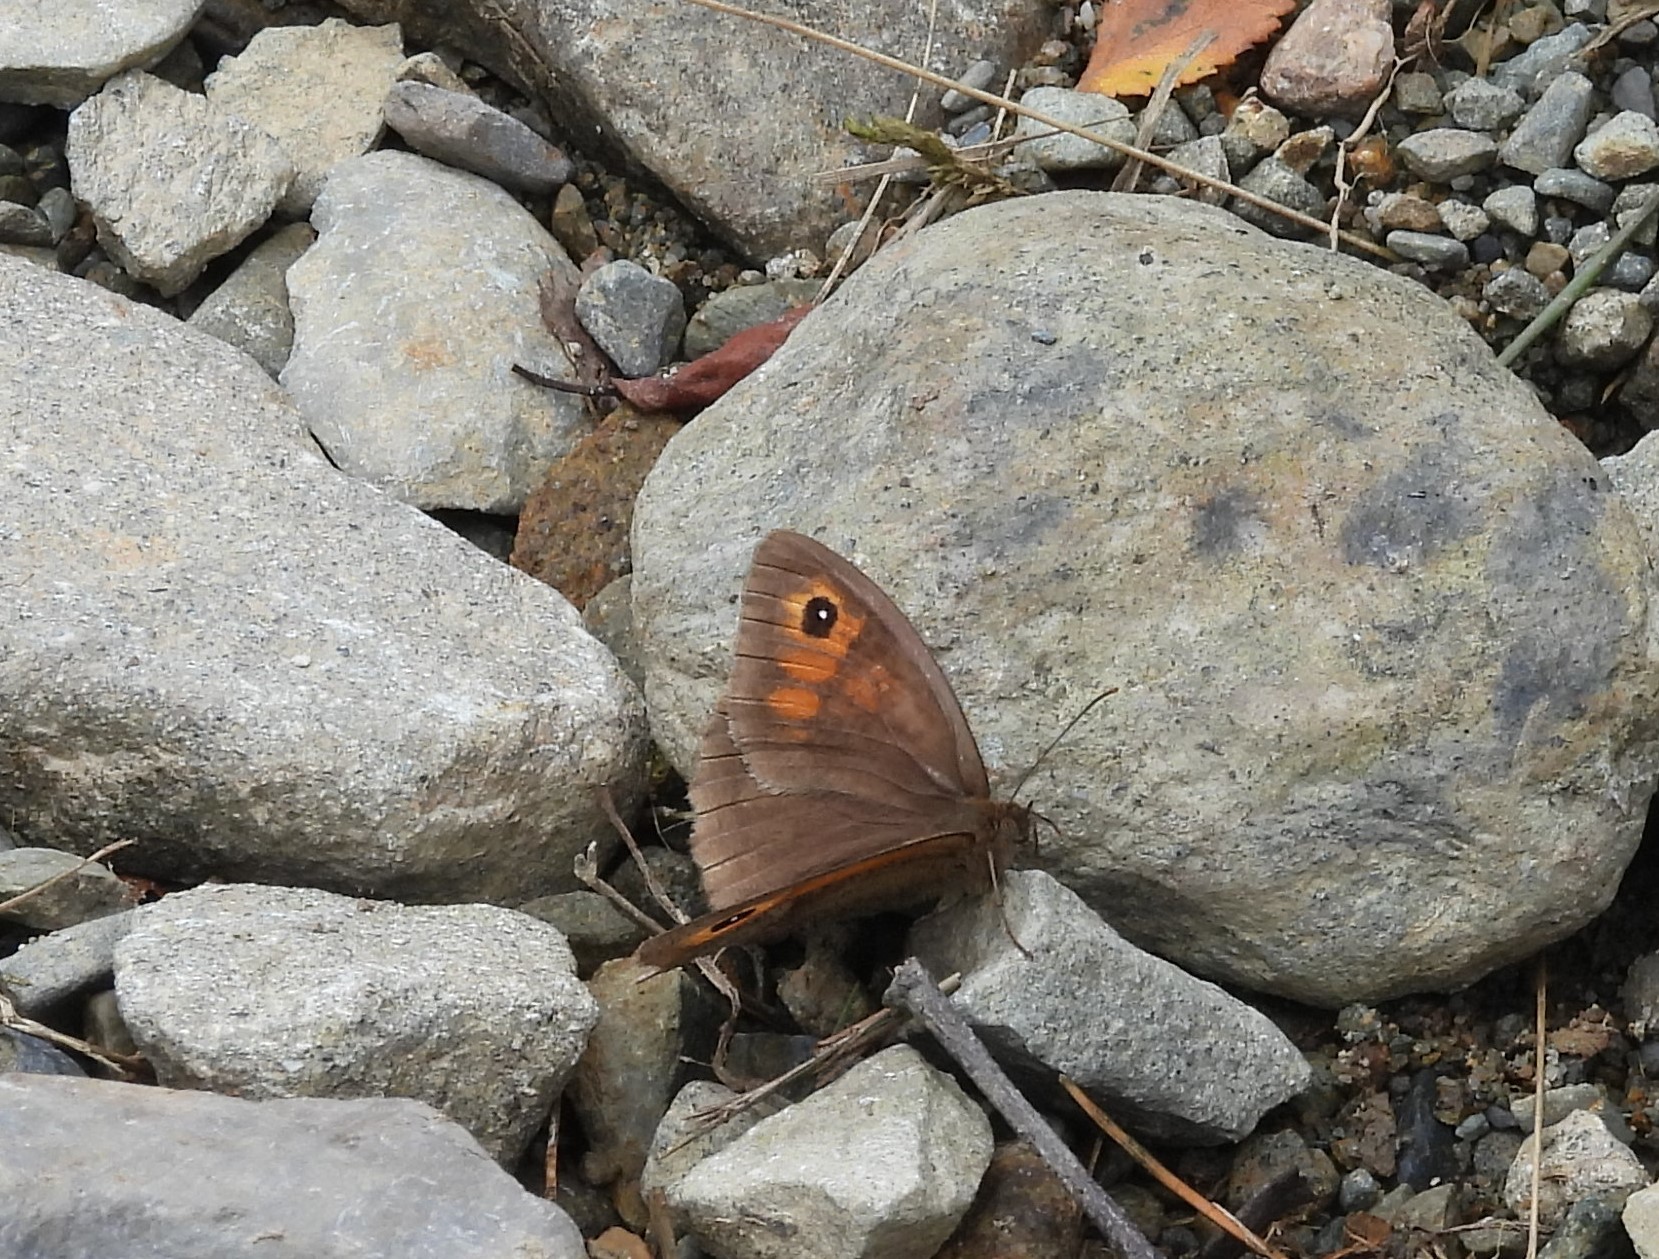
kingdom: Animalia
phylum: Arthropoda
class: Insecta
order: Lepidoptera
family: Nymphalidae
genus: Maniola
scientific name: Maniola jurtina
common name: Meadow brown
